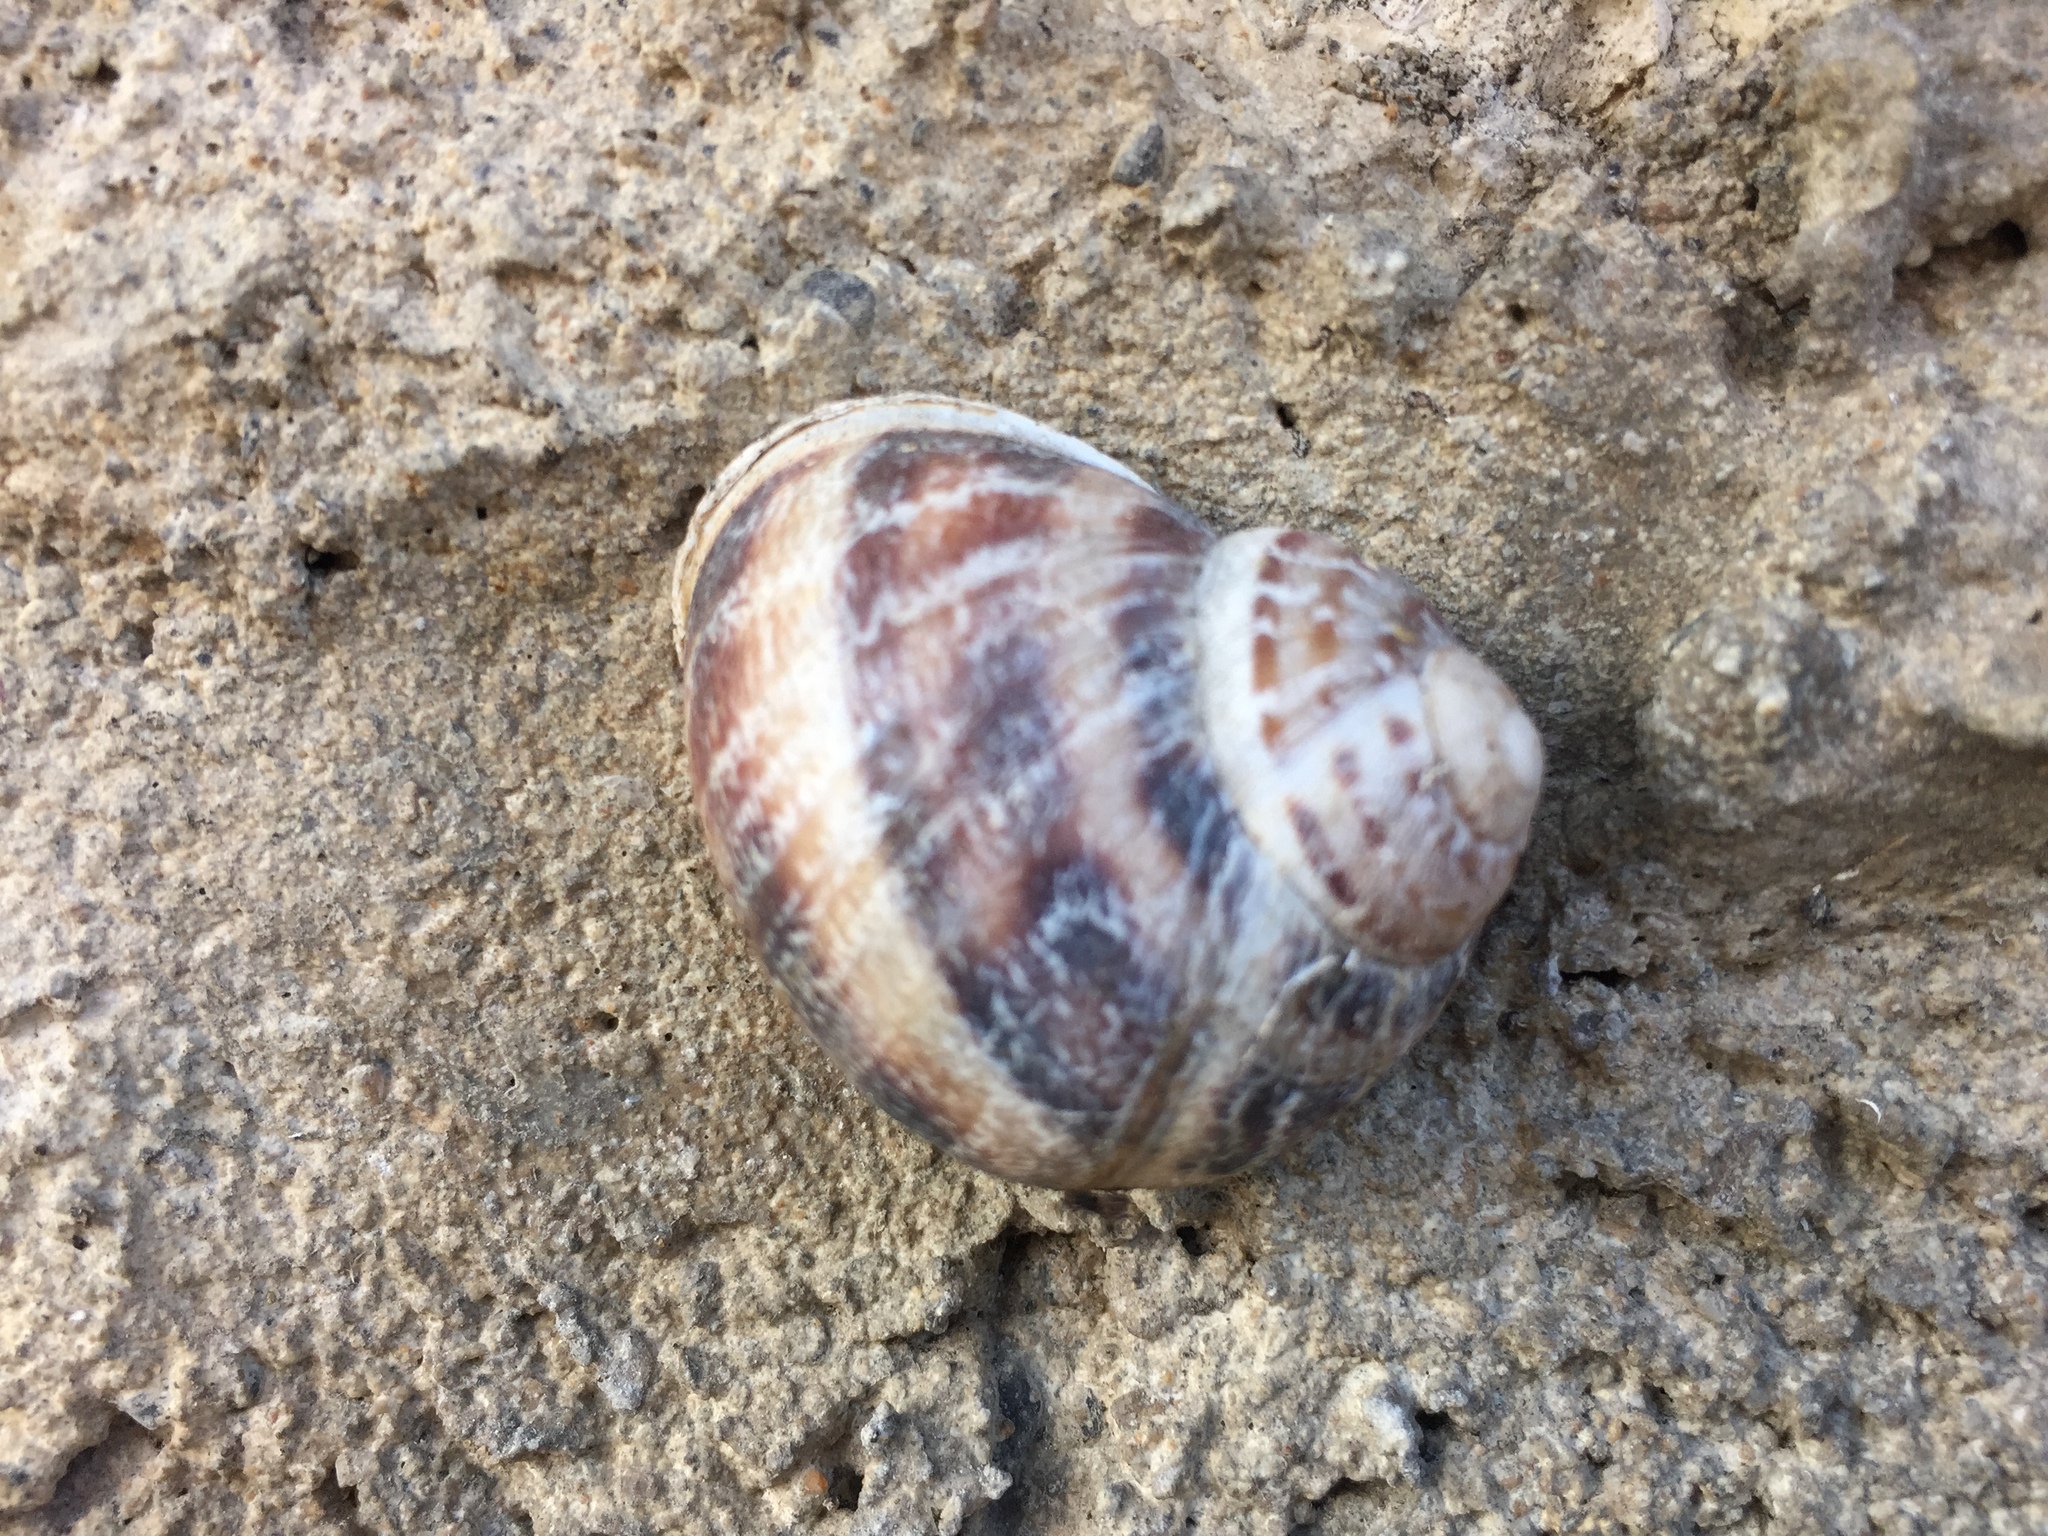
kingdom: Animalia
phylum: Mollusca
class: Gastropoda
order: Stylommatophora
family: Helicidae
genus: Cornu
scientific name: Cornu aspersum
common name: Brown garden snail
